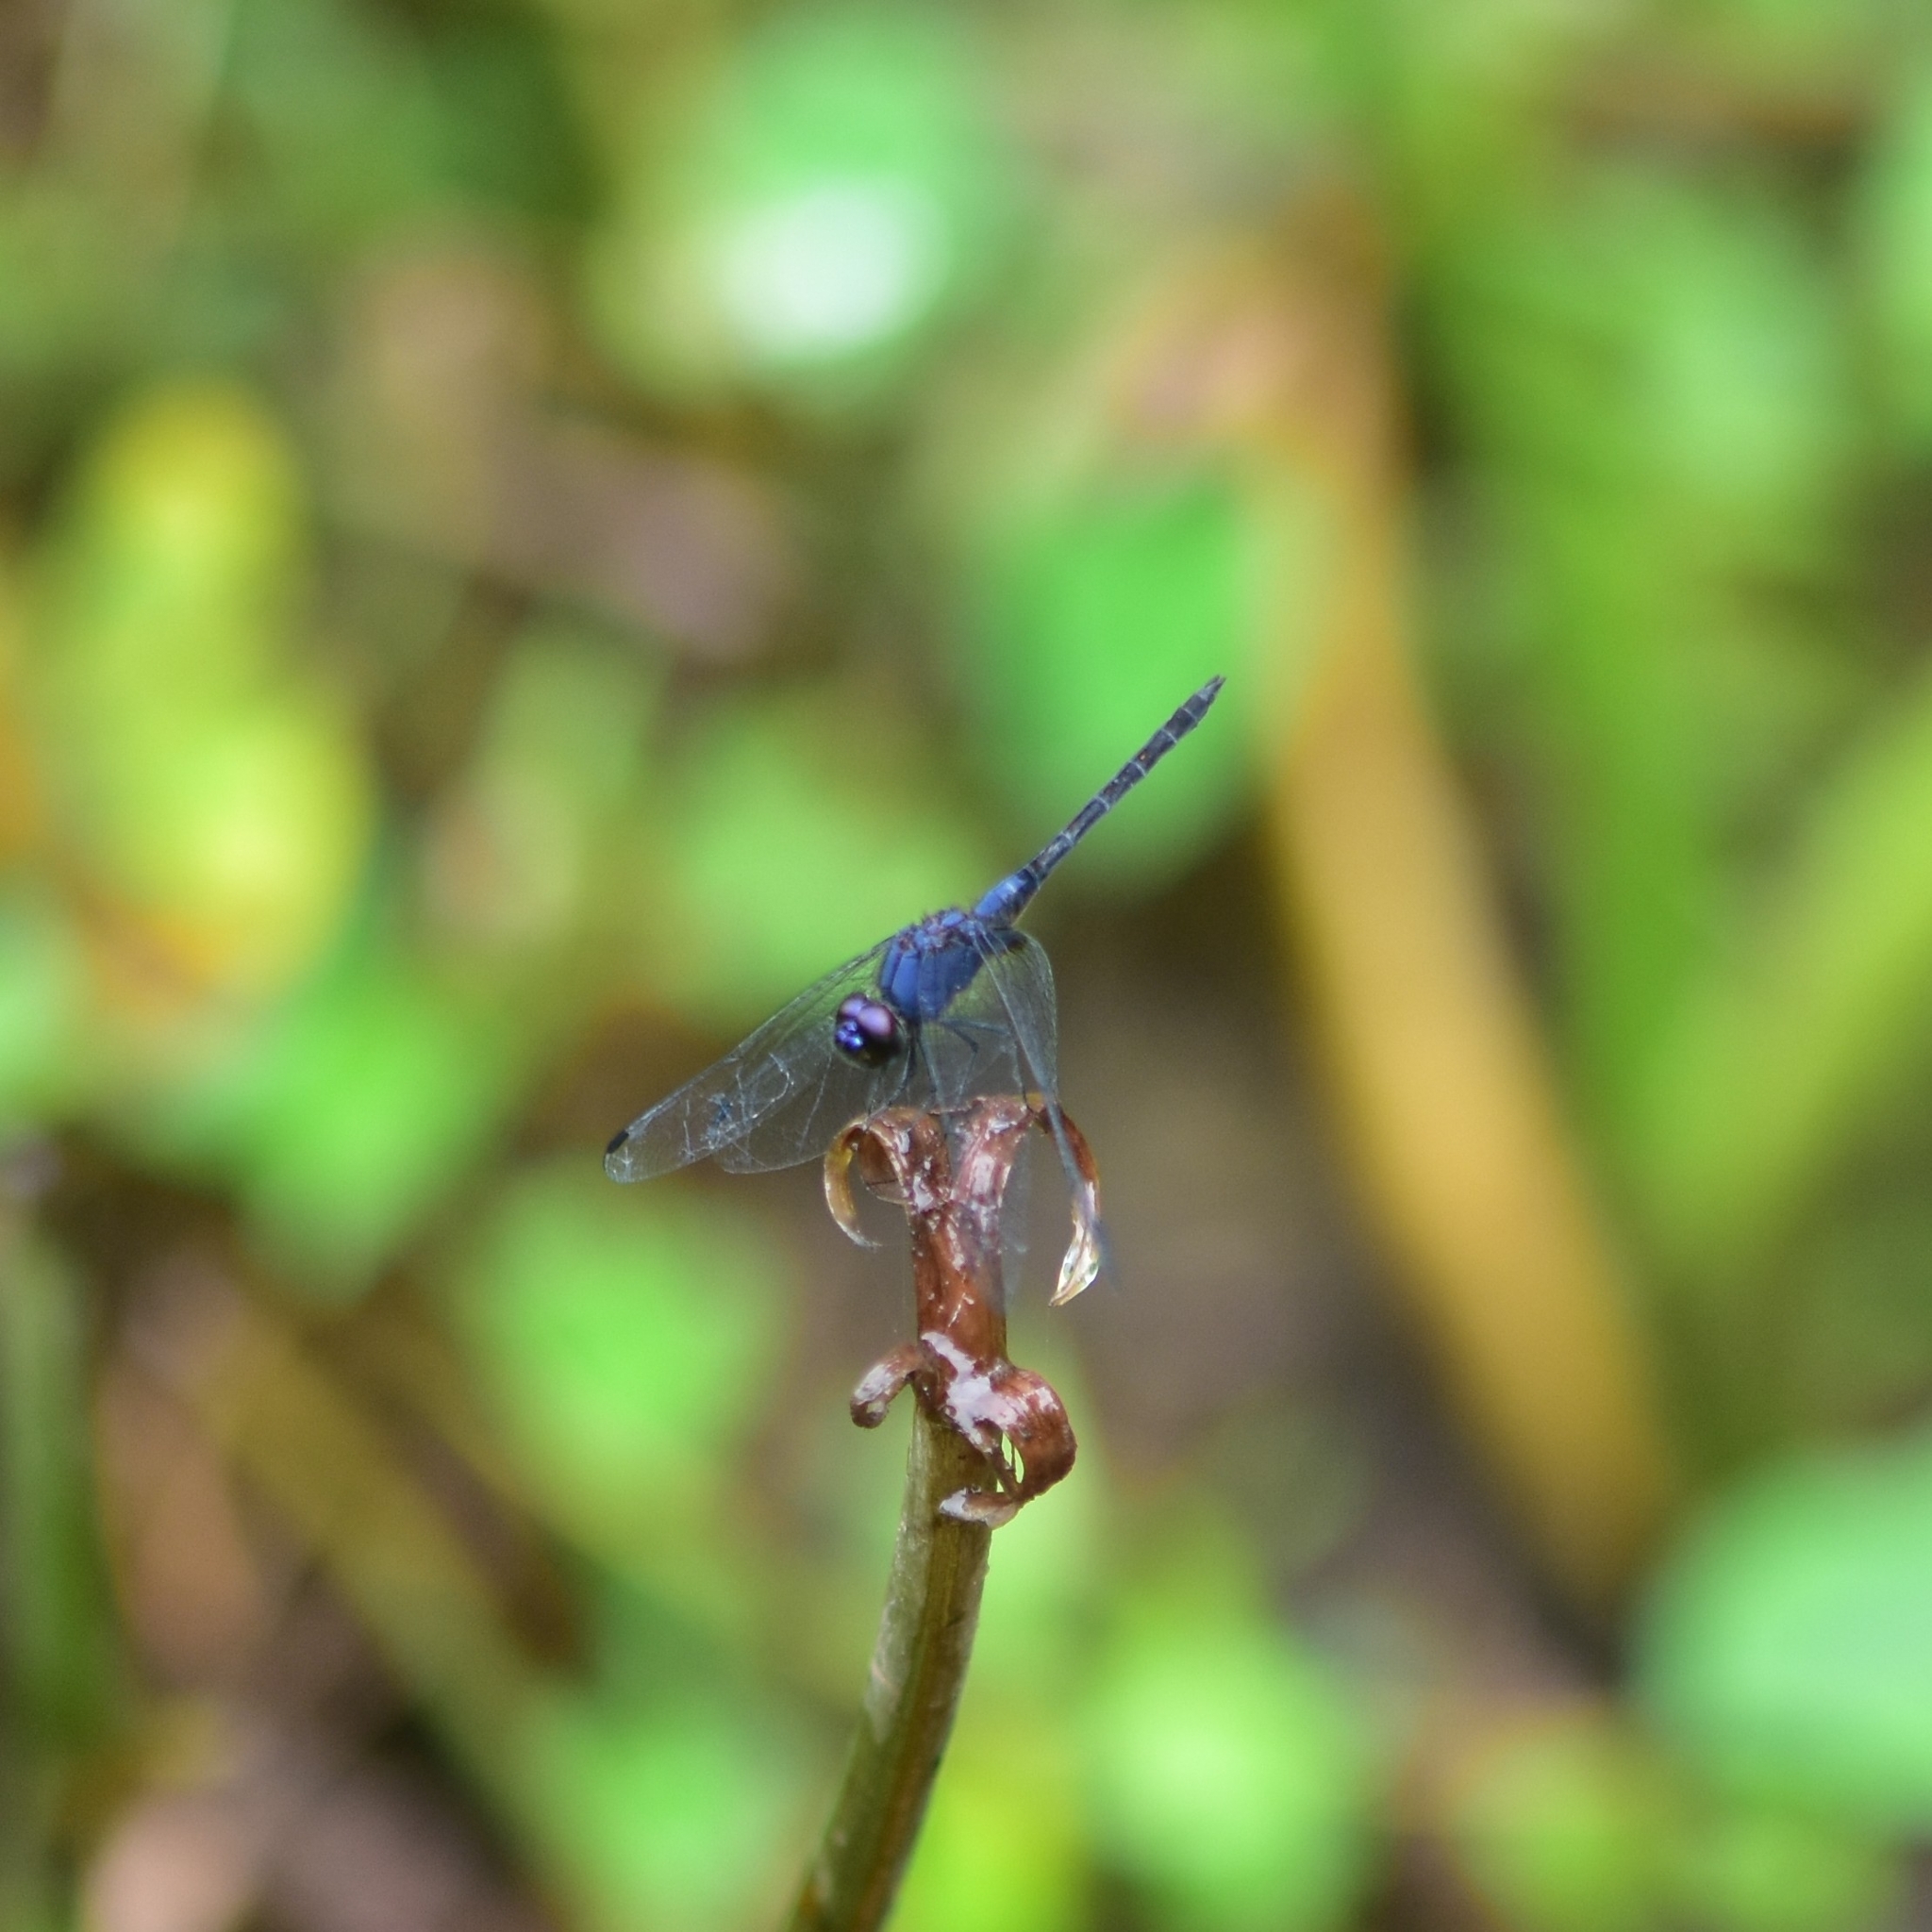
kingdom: Animalia
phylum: Arthropoda
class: Insecta
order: Odonata
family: Libellulidae
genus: Trithemis
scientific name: Trithemis festiva
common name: Indigo dropwing
